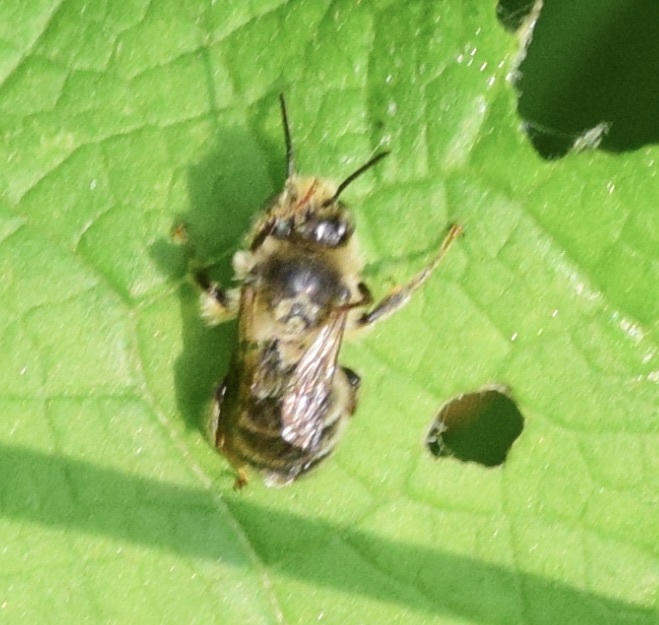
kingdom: Animalia
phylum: Arthropoda
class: Insecta
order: Hymenoptera
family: Apidae
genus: Anthophora
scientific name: Anthophora terminalis
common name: Orange-tipped wood-digger bee
